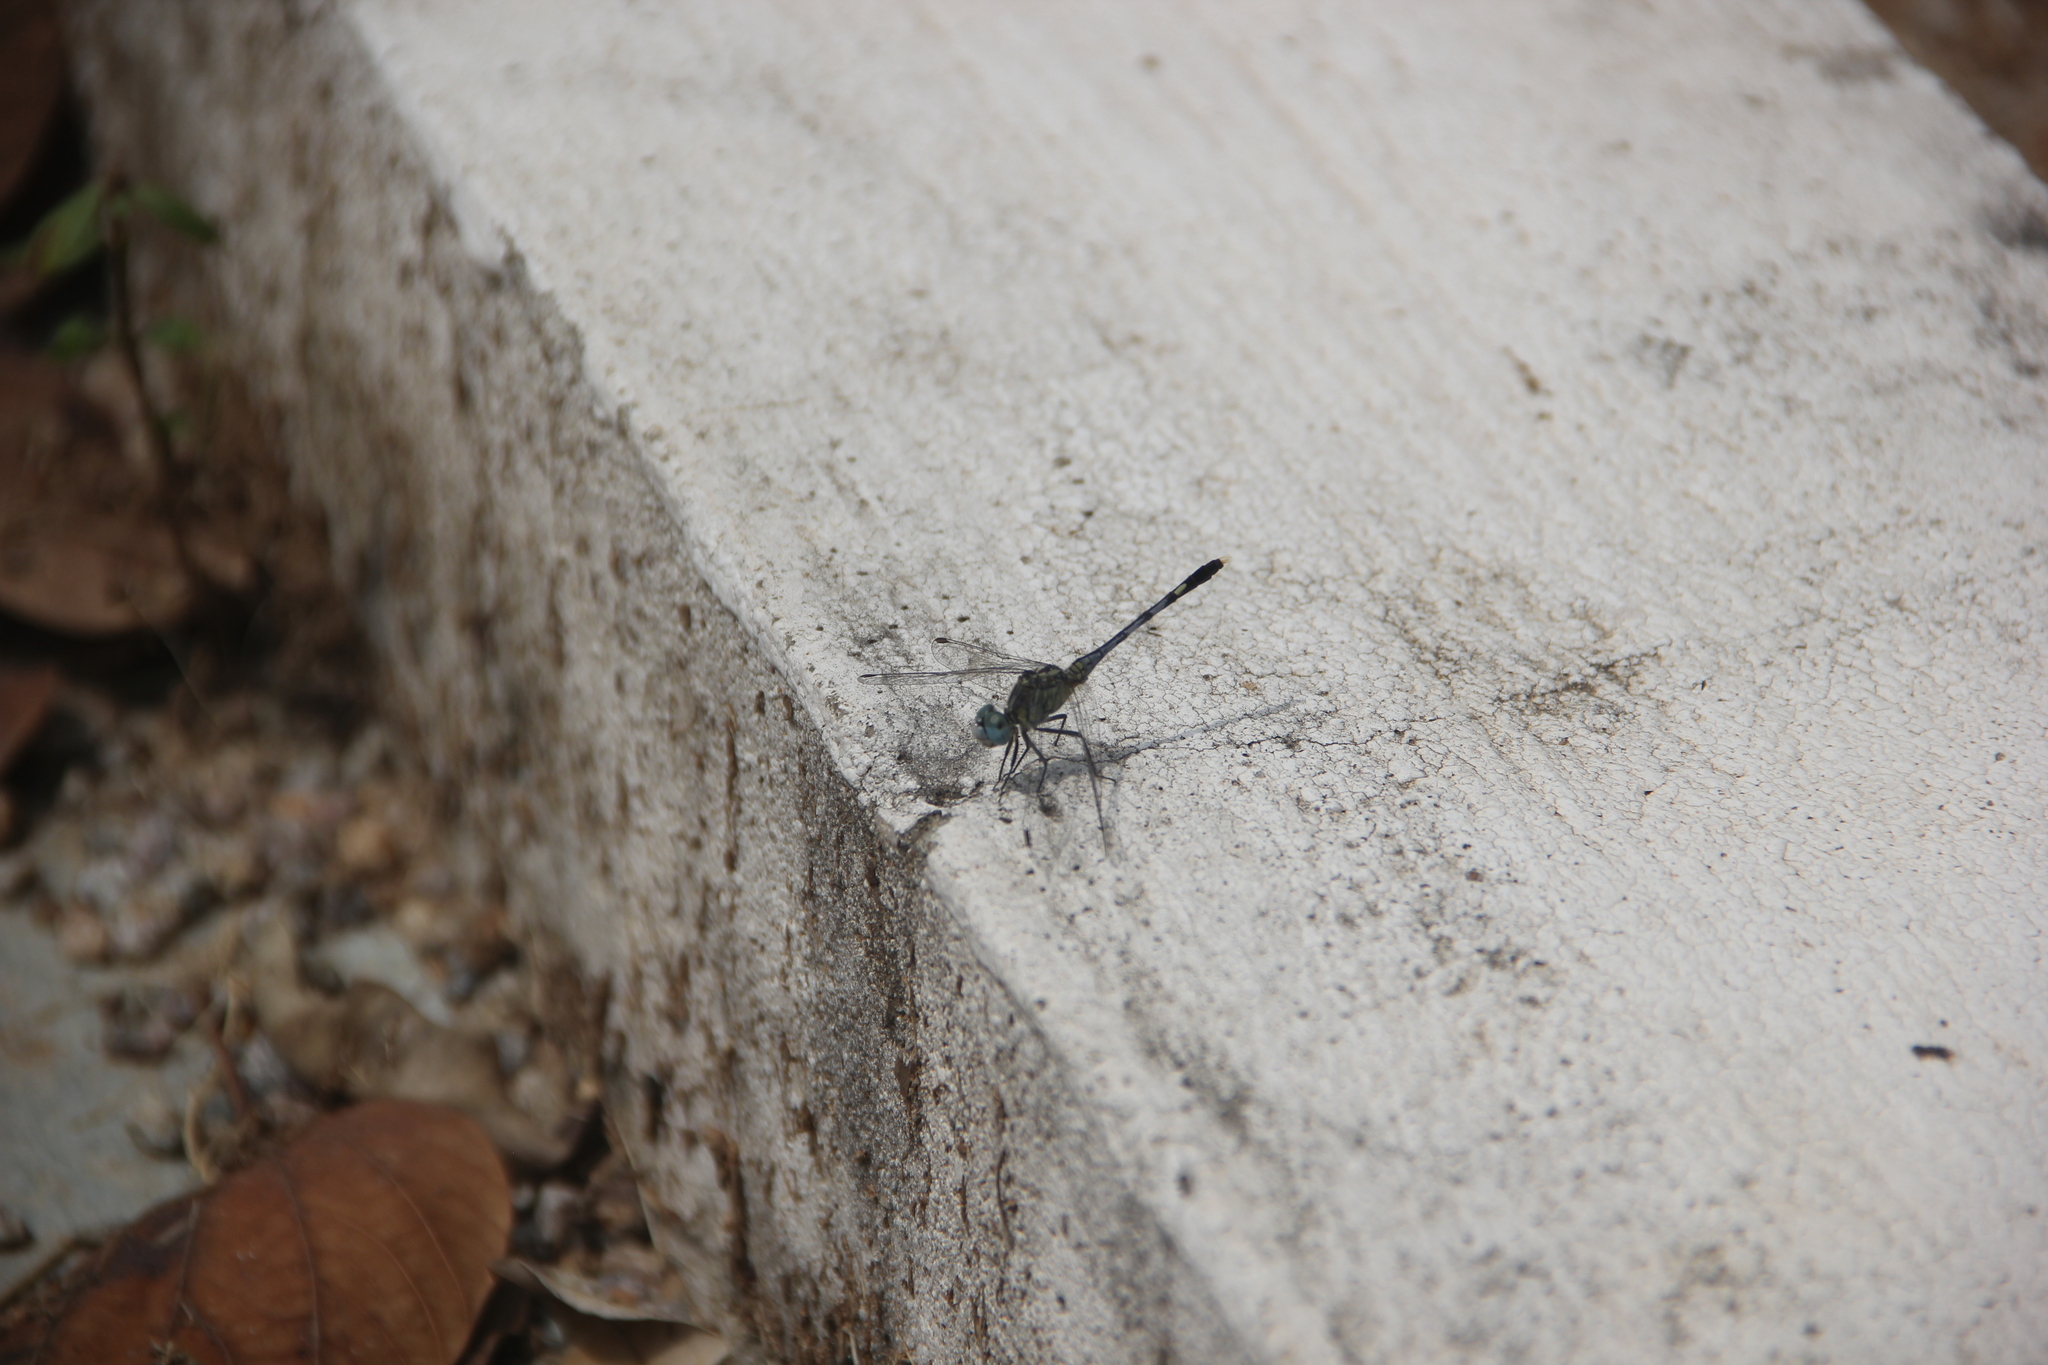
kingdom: Animalia
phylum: Arthropoda
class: Insecta
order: Odonata
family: Libellulidae
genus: Diplacodes
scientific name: Diplacodes trivialis
